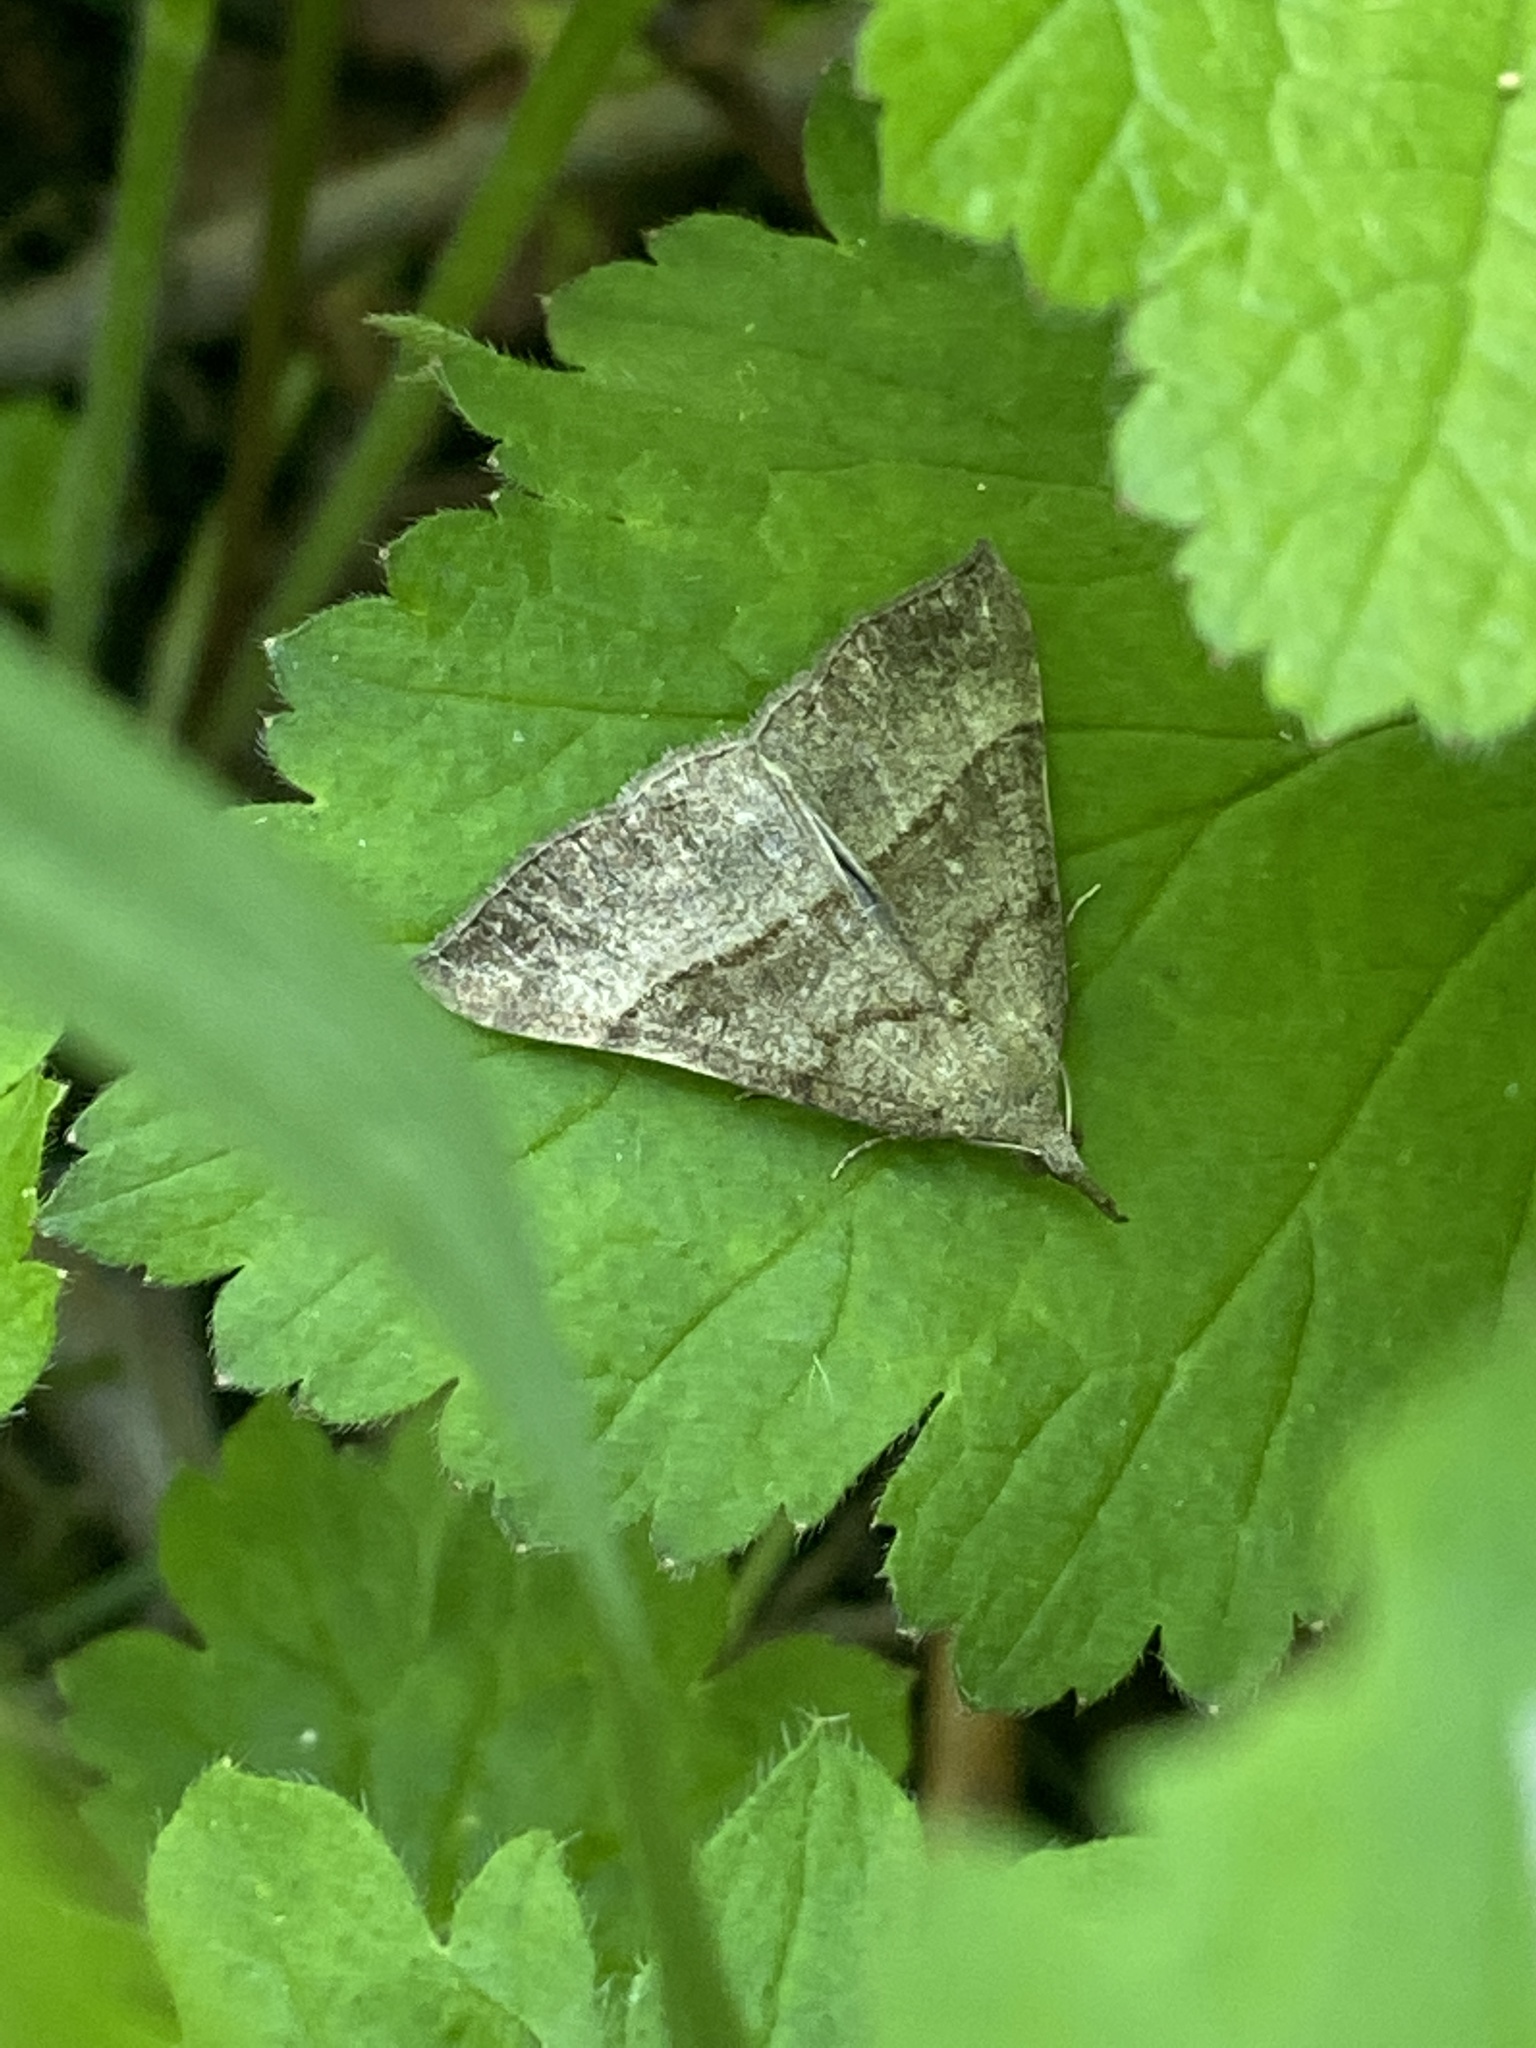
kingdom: Animalia
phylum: Arthropoda
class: Insecta
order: Lepidoptera
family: Erebidae
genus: Hypena
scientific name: Hypena proboscidalis
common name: Snout
